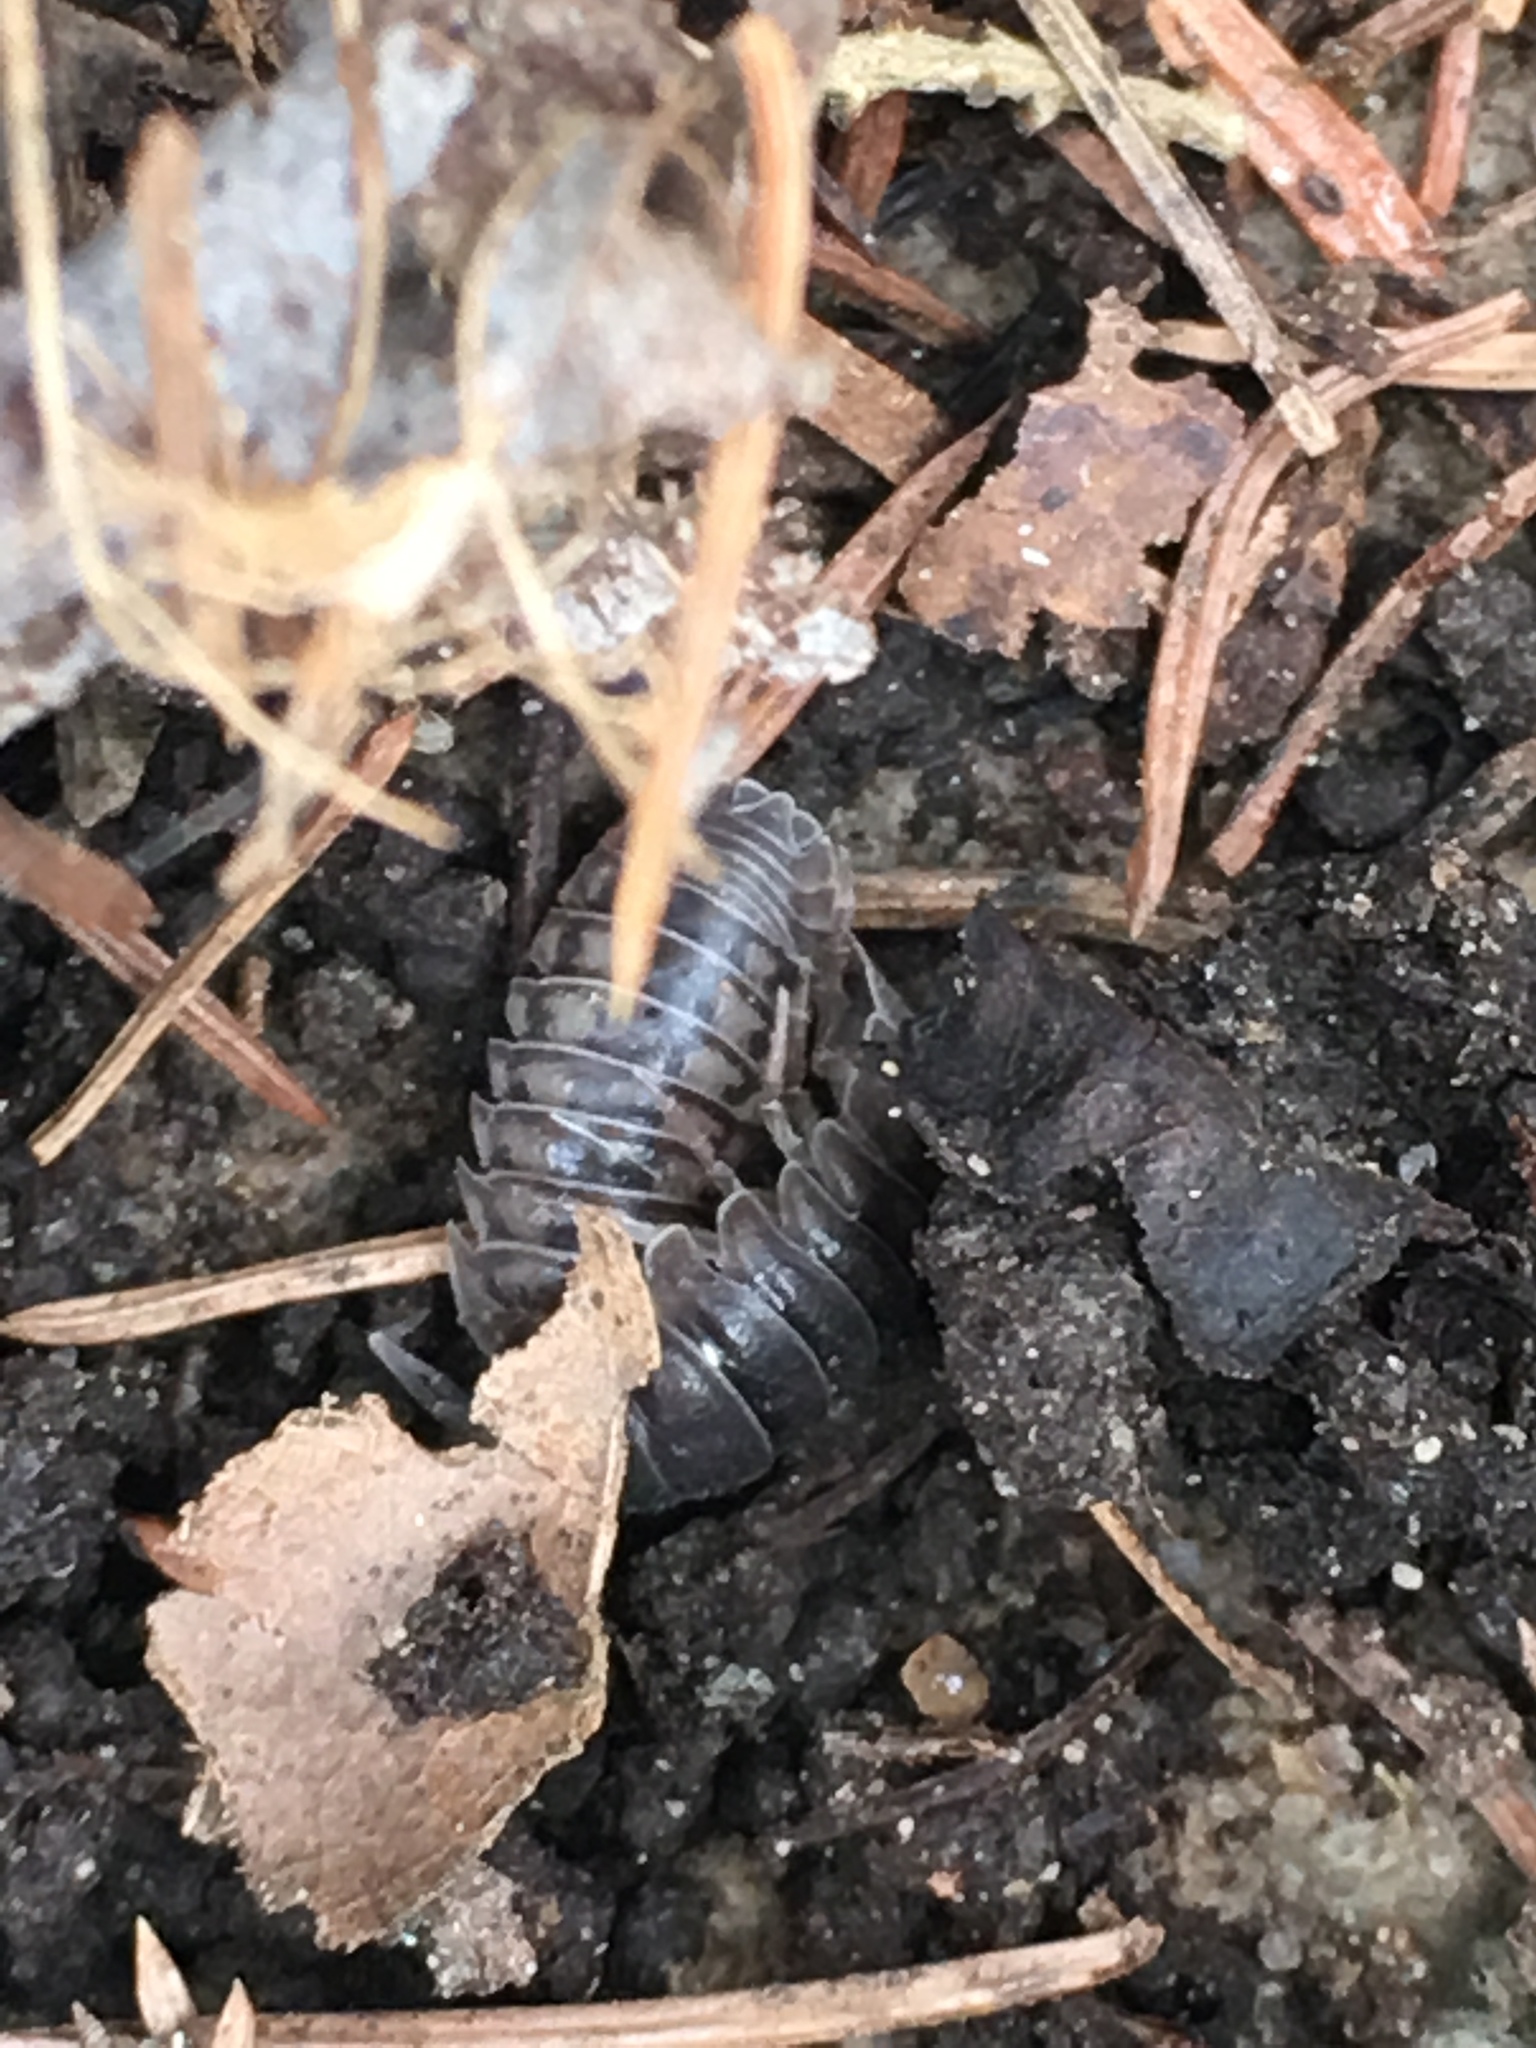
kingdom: Animalia
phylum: Arthropoda
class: Malacostraca
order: Isopoda
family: Armadillidiidae
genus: Armadillidium
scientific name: Armadillidium nasatum
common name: Isopod
